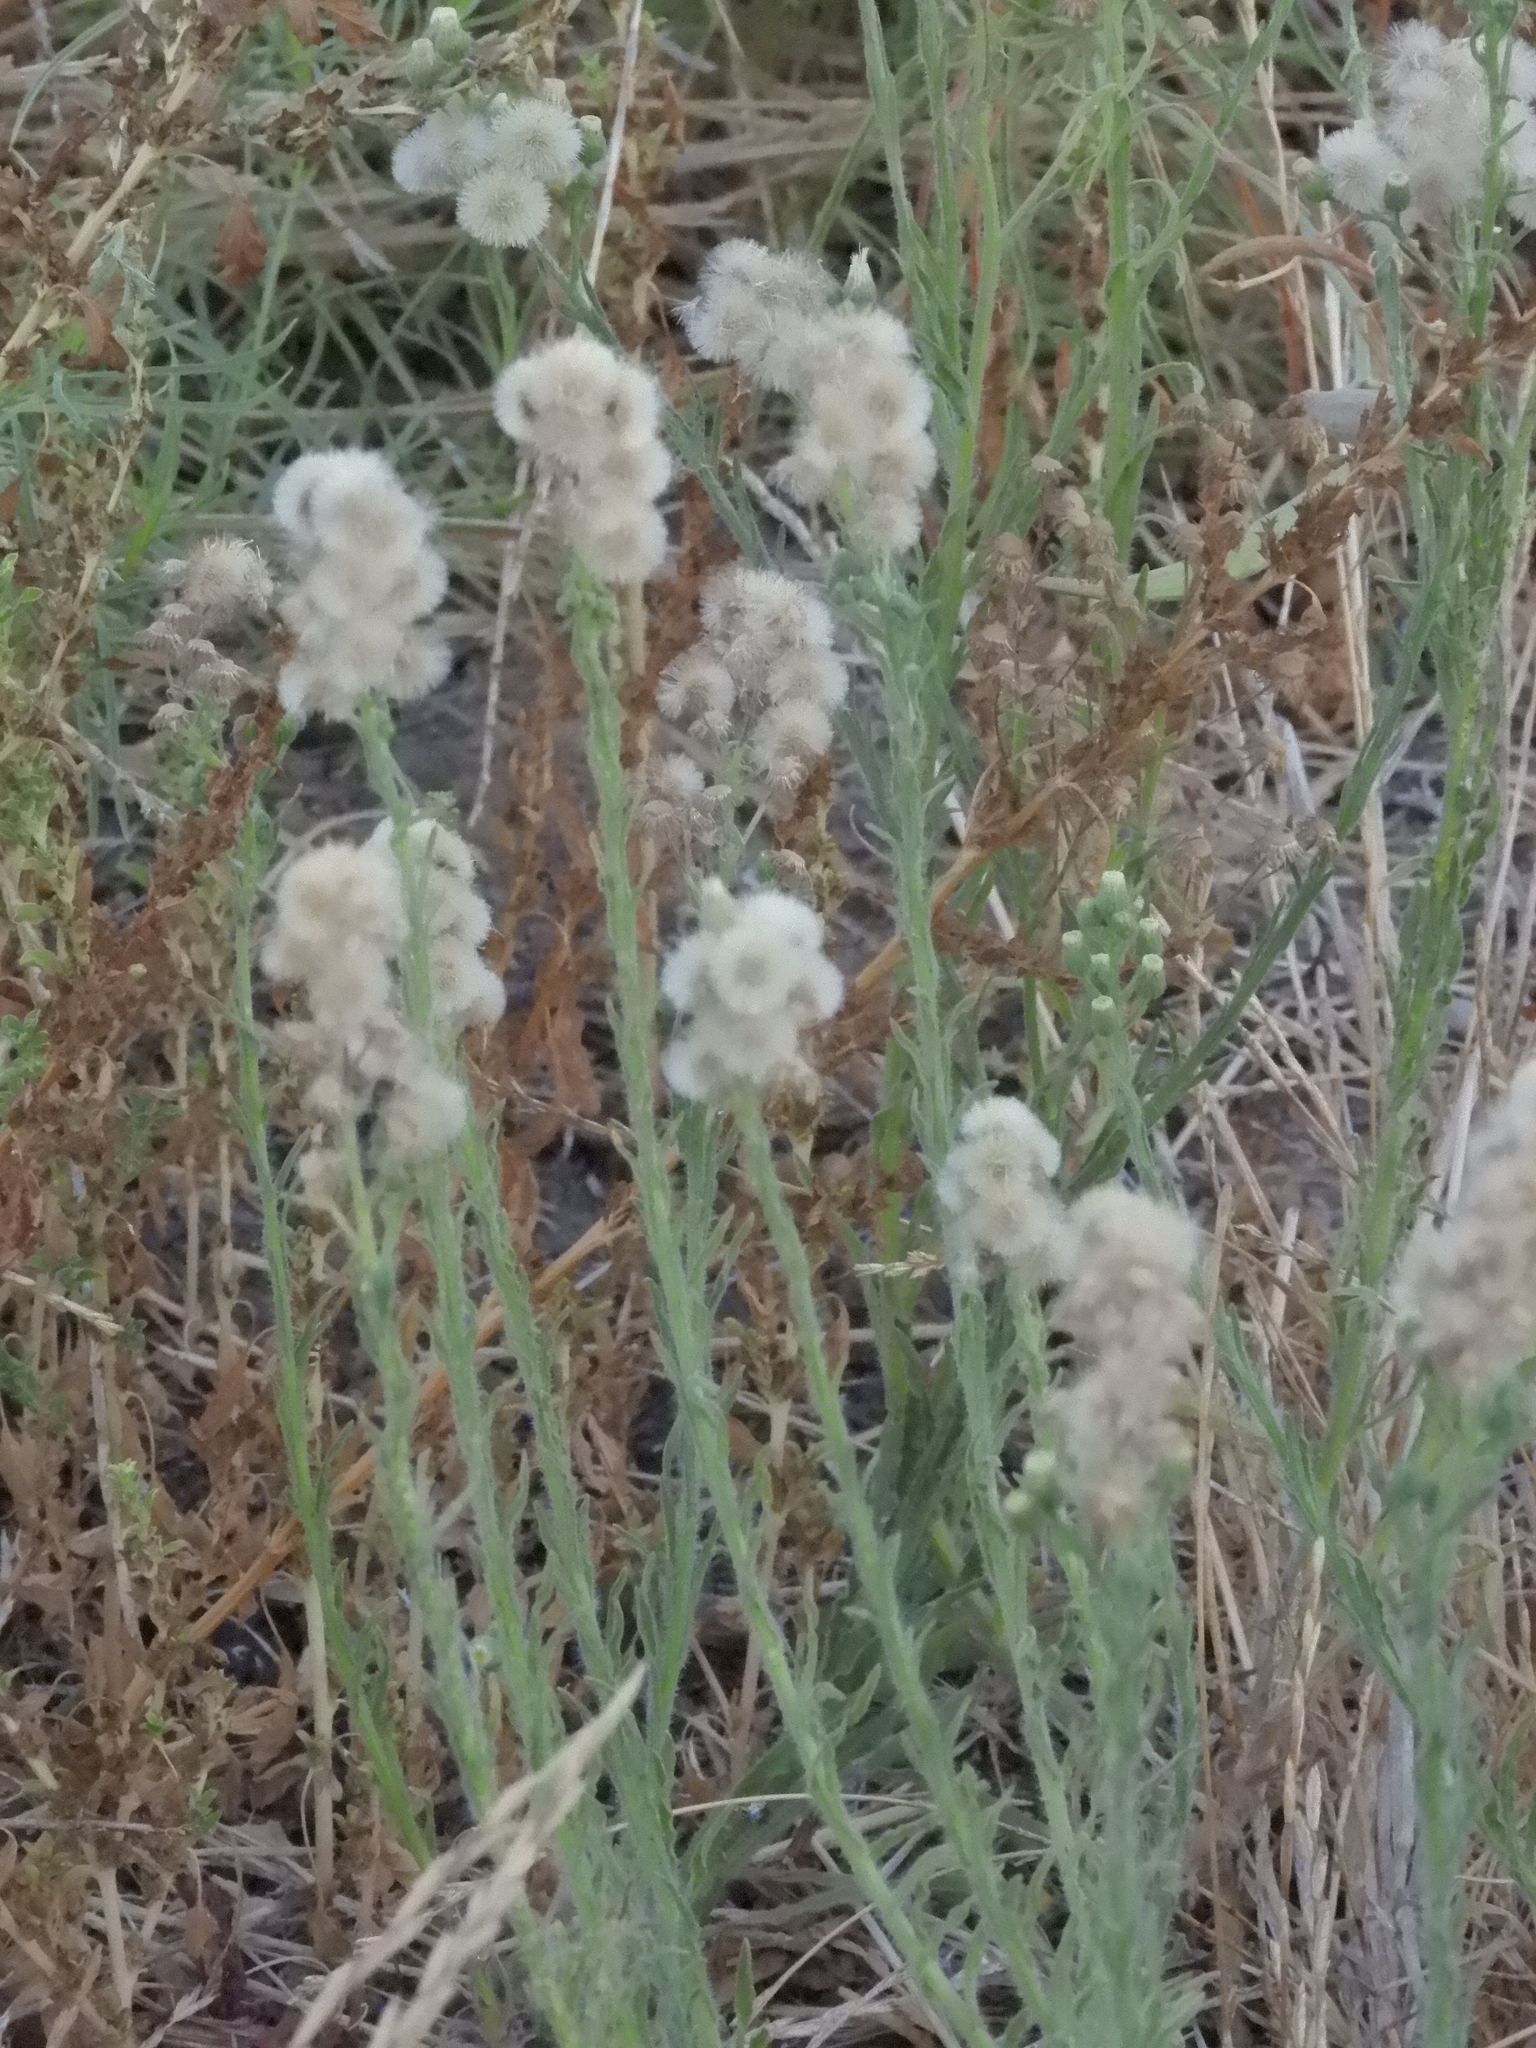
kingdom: Plantae
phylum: Tracheophyta
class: Magnoliopsida
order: Asterales
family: Asteraceae
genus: Erigeron
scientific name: Erigeron bonariensis
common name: Argentine fleabane
